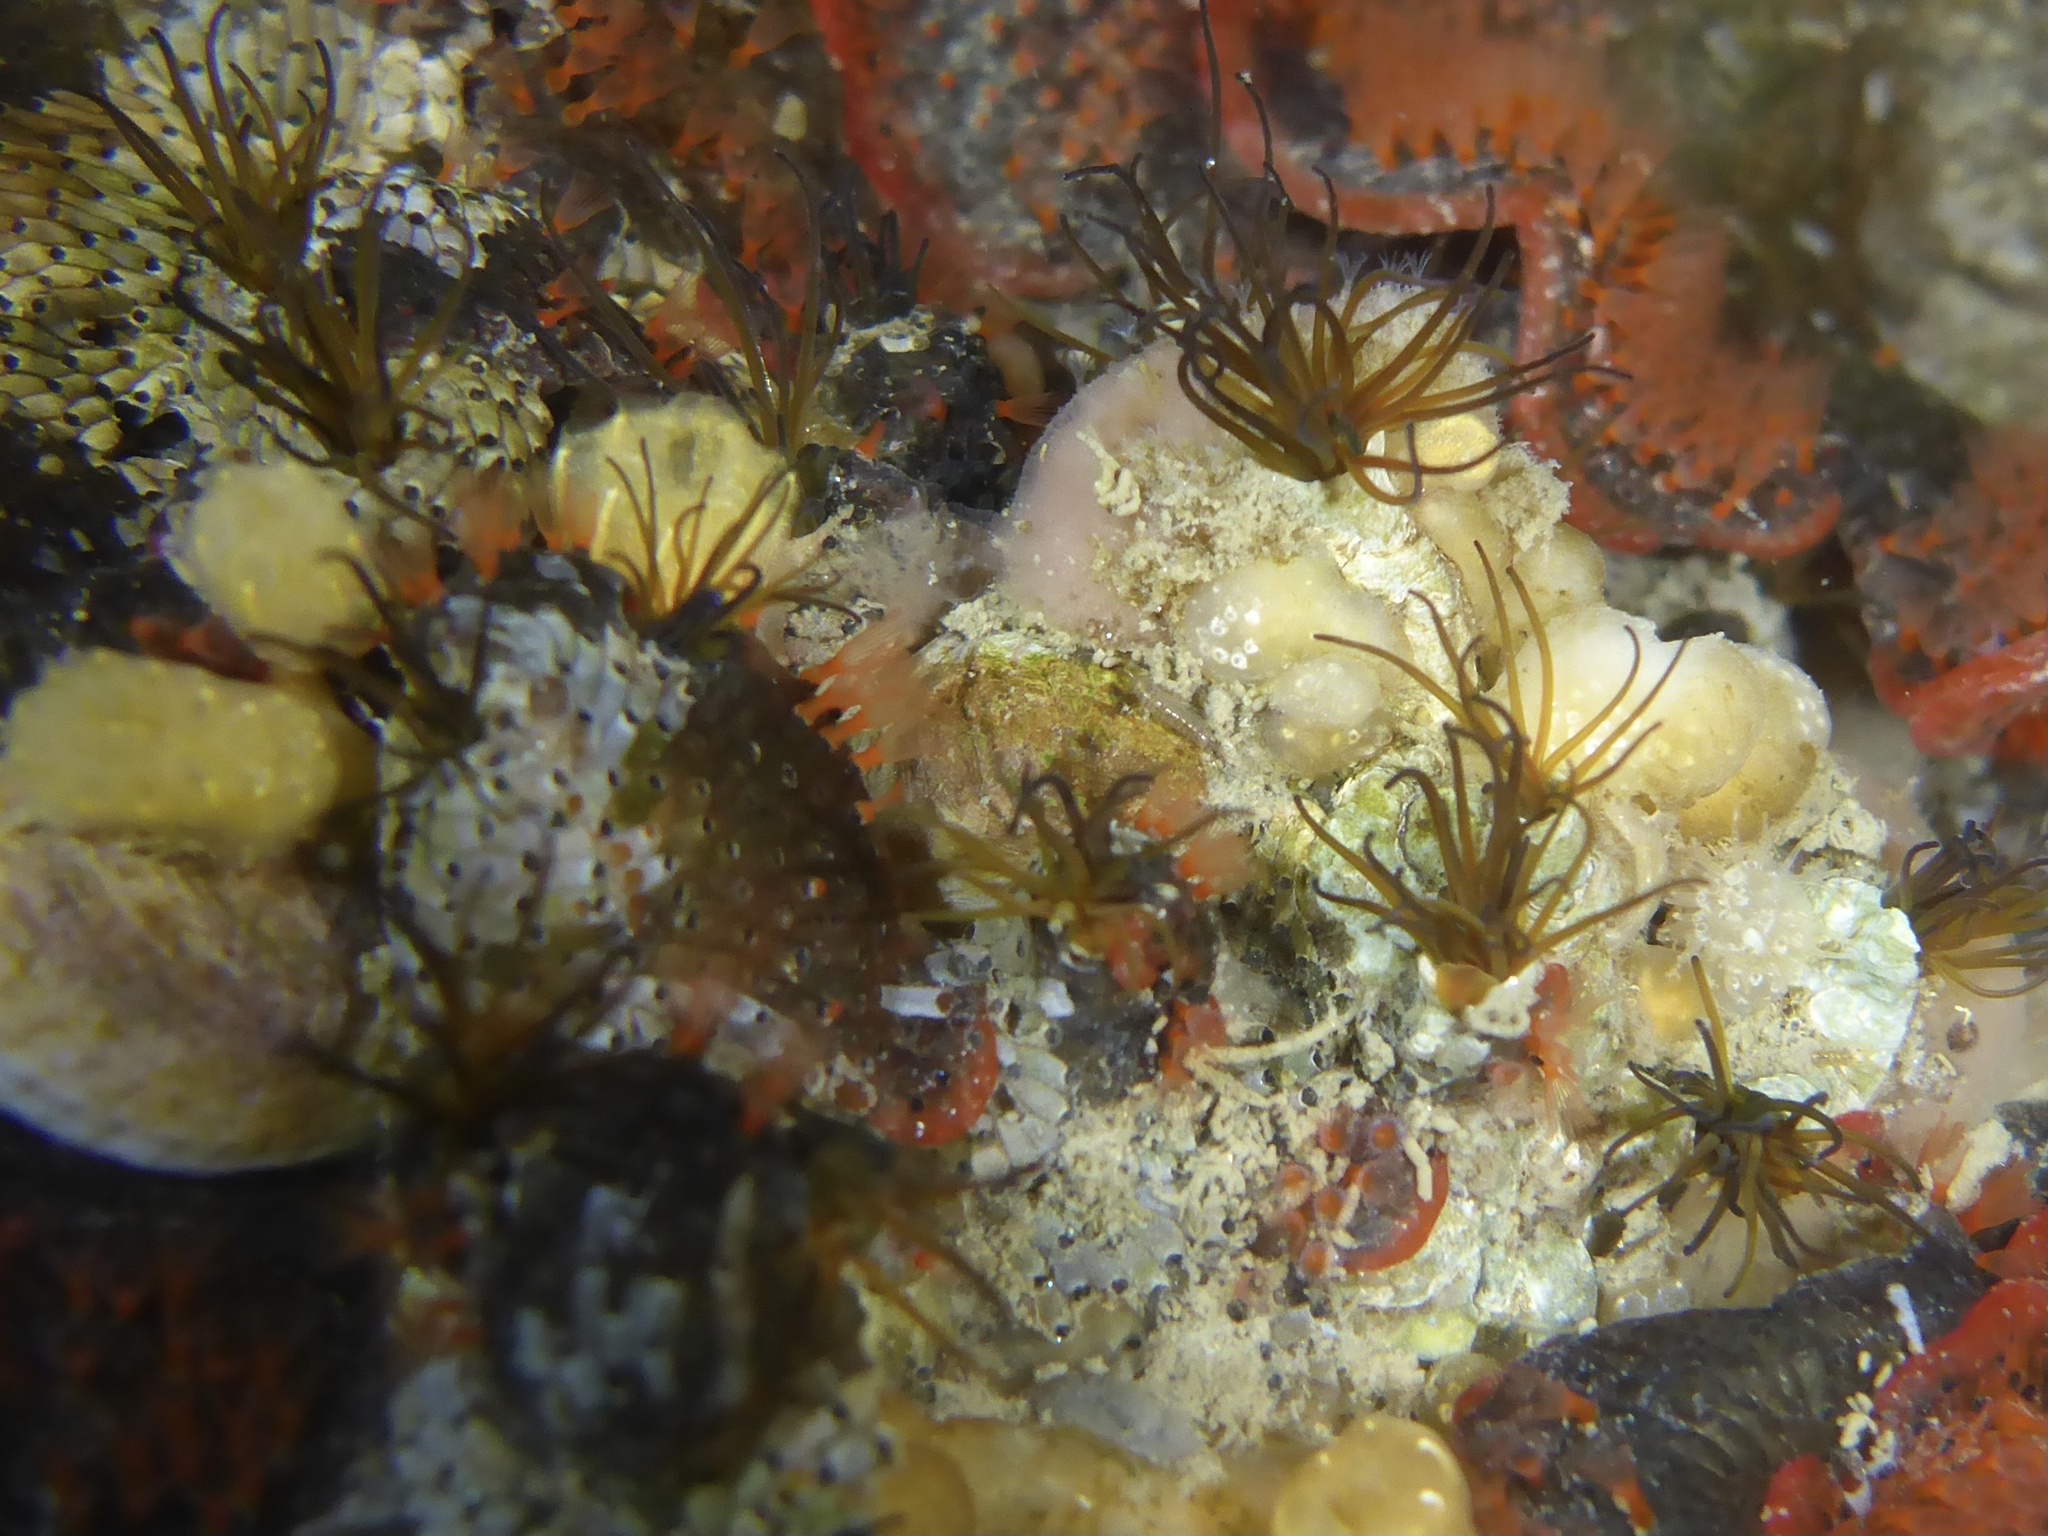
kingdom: Animalia
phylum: Annelida
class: Polychaeta
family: Cirratulidae
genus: Dodecaceria
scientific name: Dodecaceria pacifica
